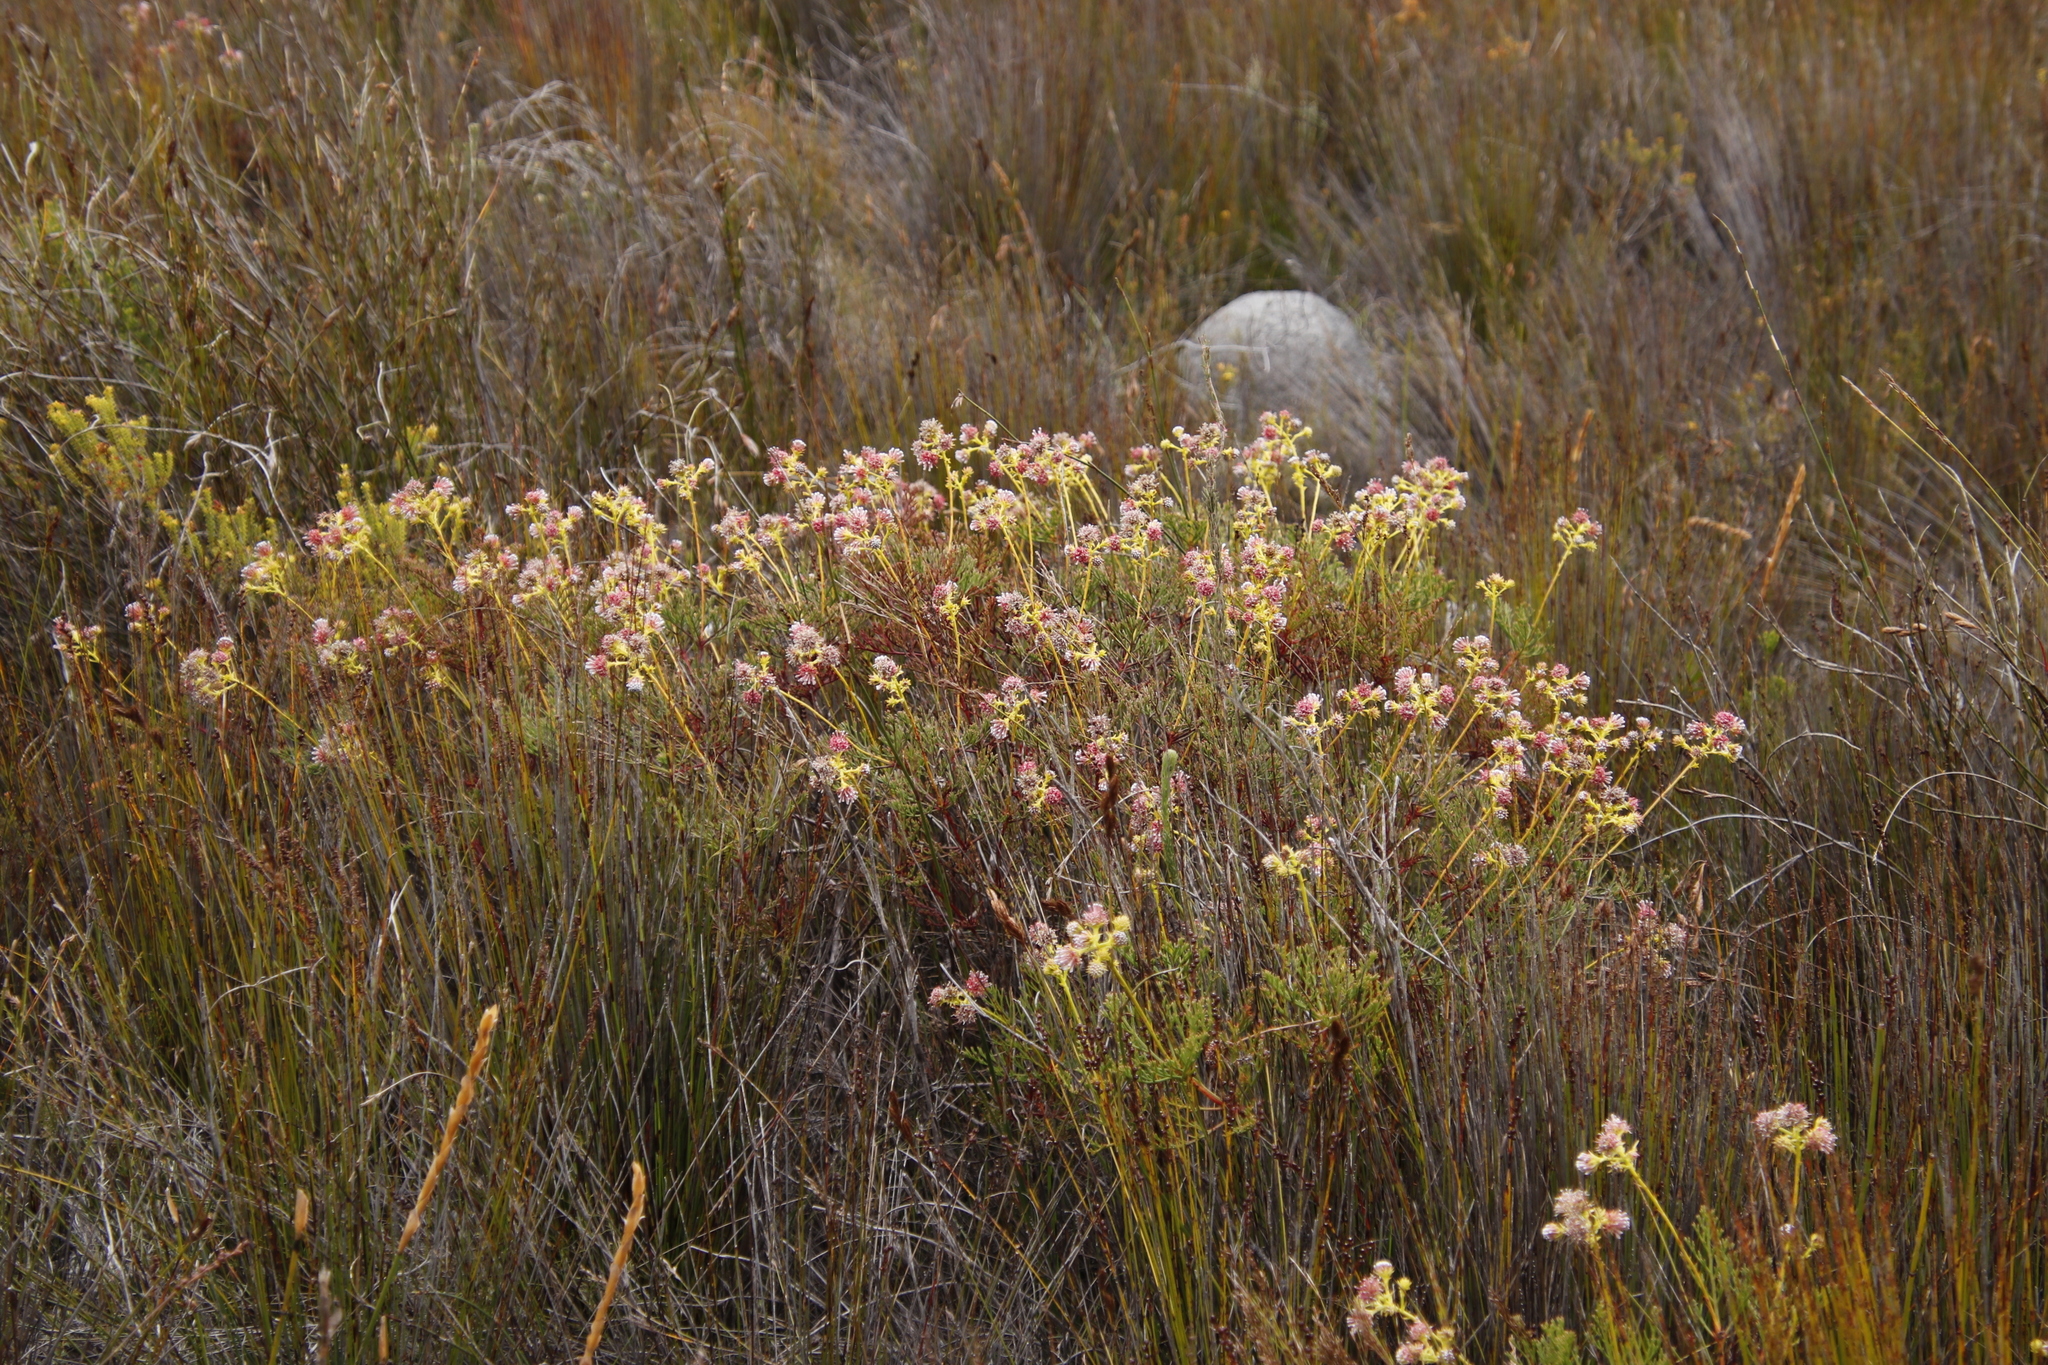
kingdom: Plantae
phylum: Tracheophyta
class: Magnoliopsida
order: Proteales
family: Proteaceae
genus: Serruria
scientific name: Serruria elongata
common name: Long-stalk spiderhead
